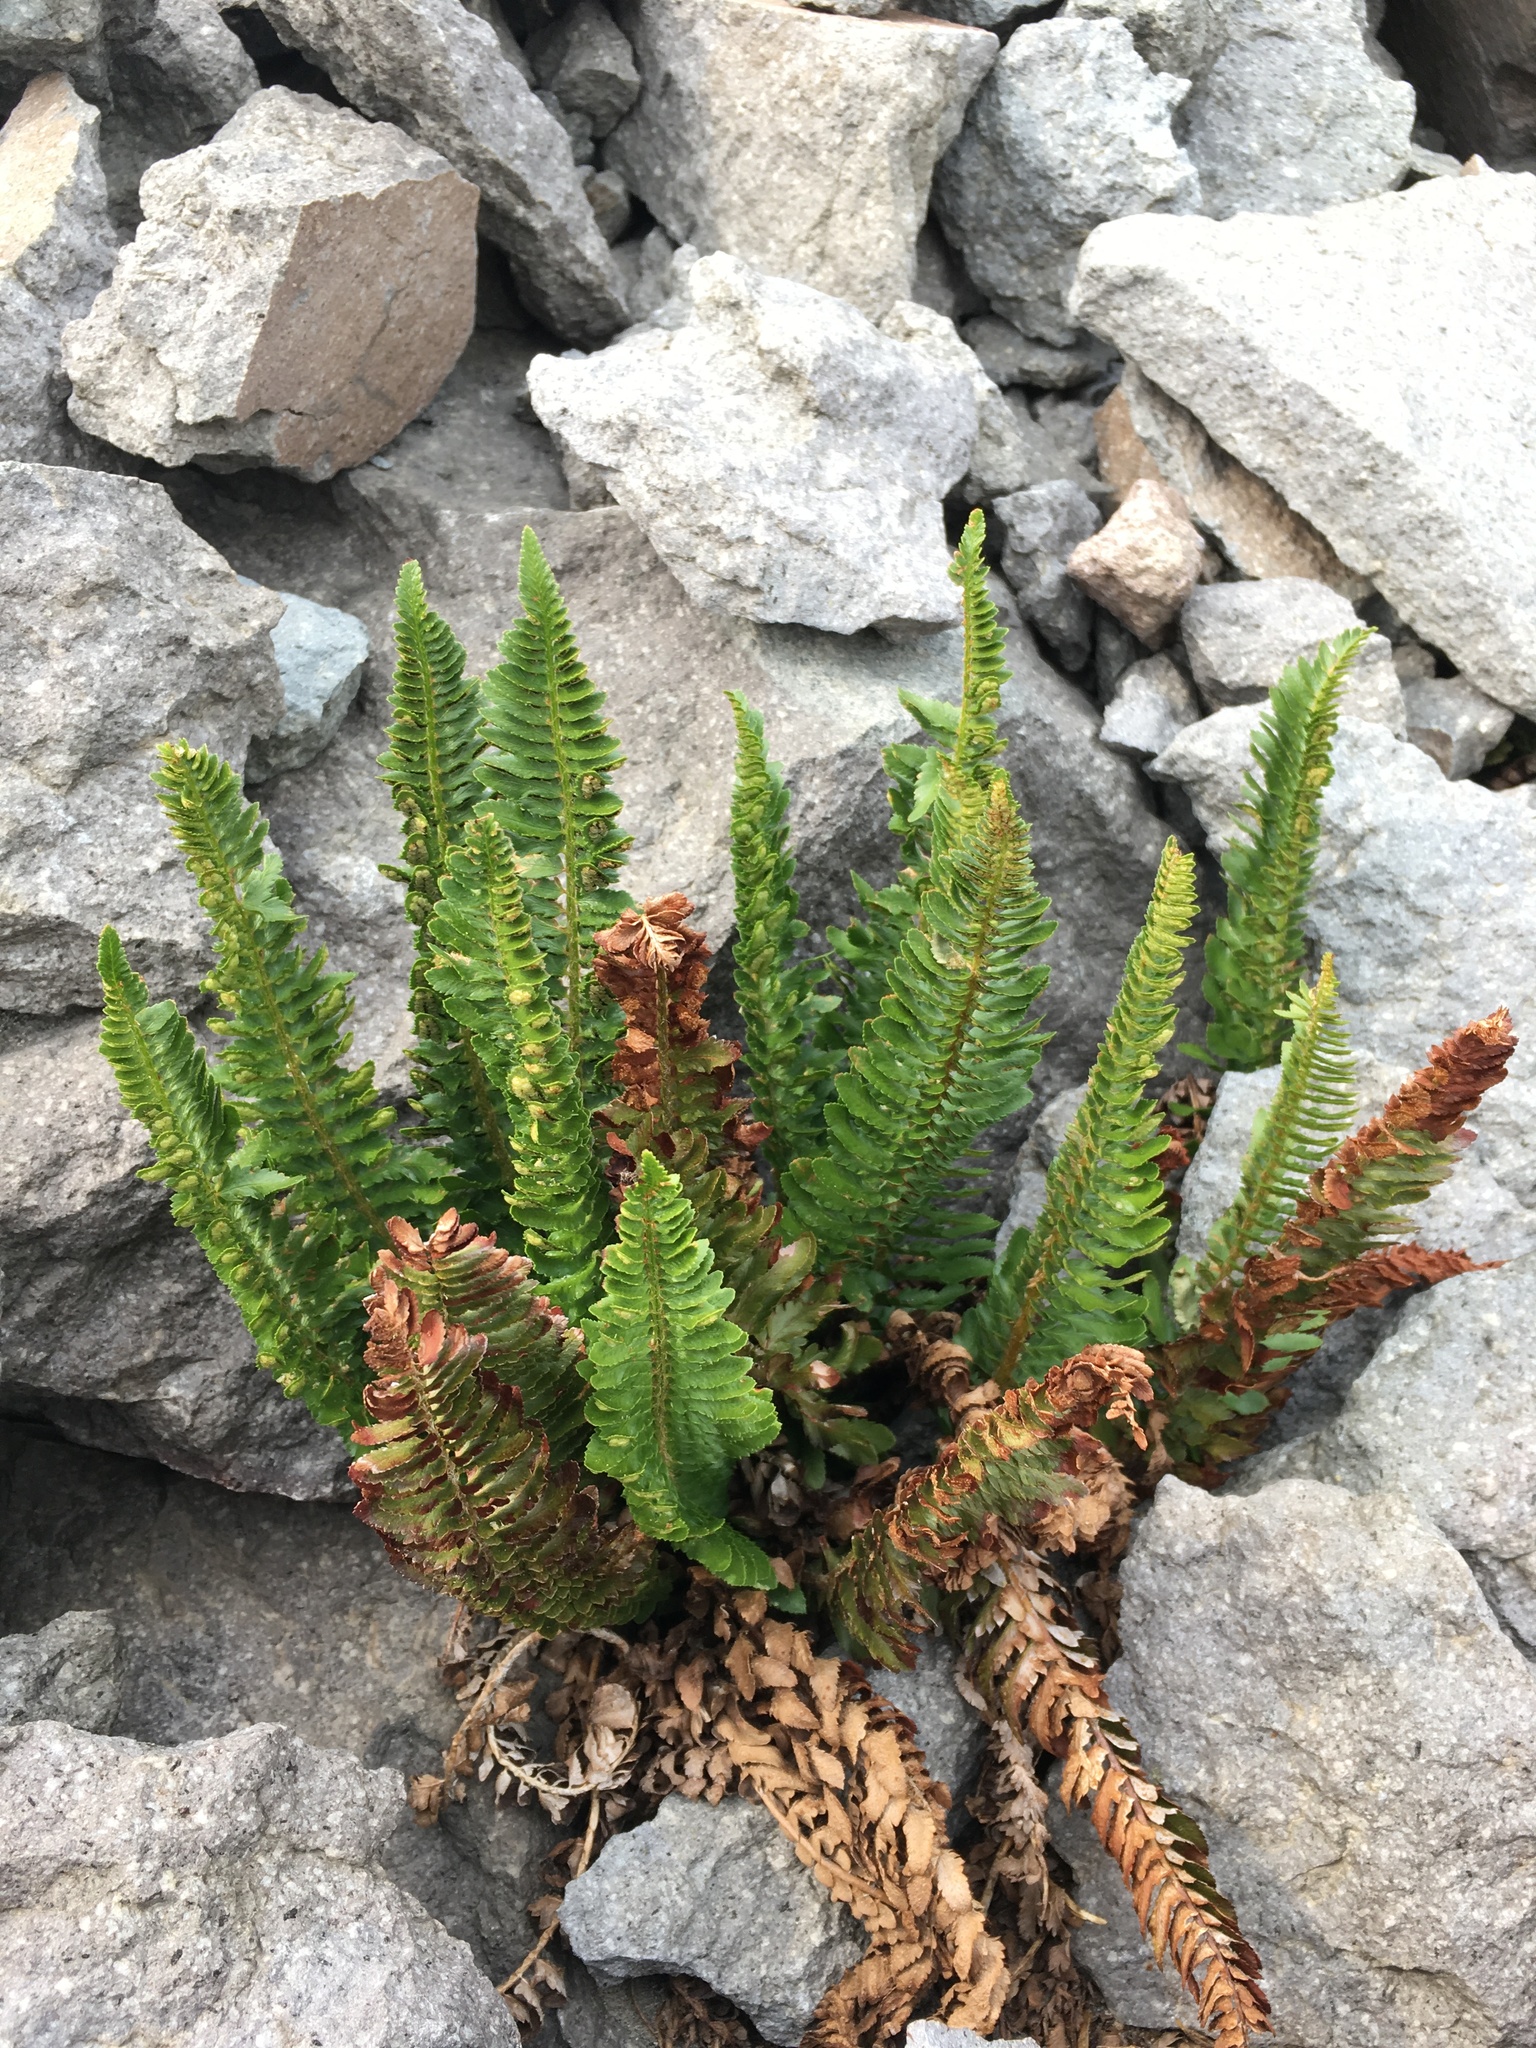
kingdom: Plantae
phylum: Tracheophyta
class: Polypodiopsida
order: Polypodiales
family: Dryopteridaceae
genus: Polystichum
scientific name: Polystichum scopulinum
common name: Eaton's shield fern
